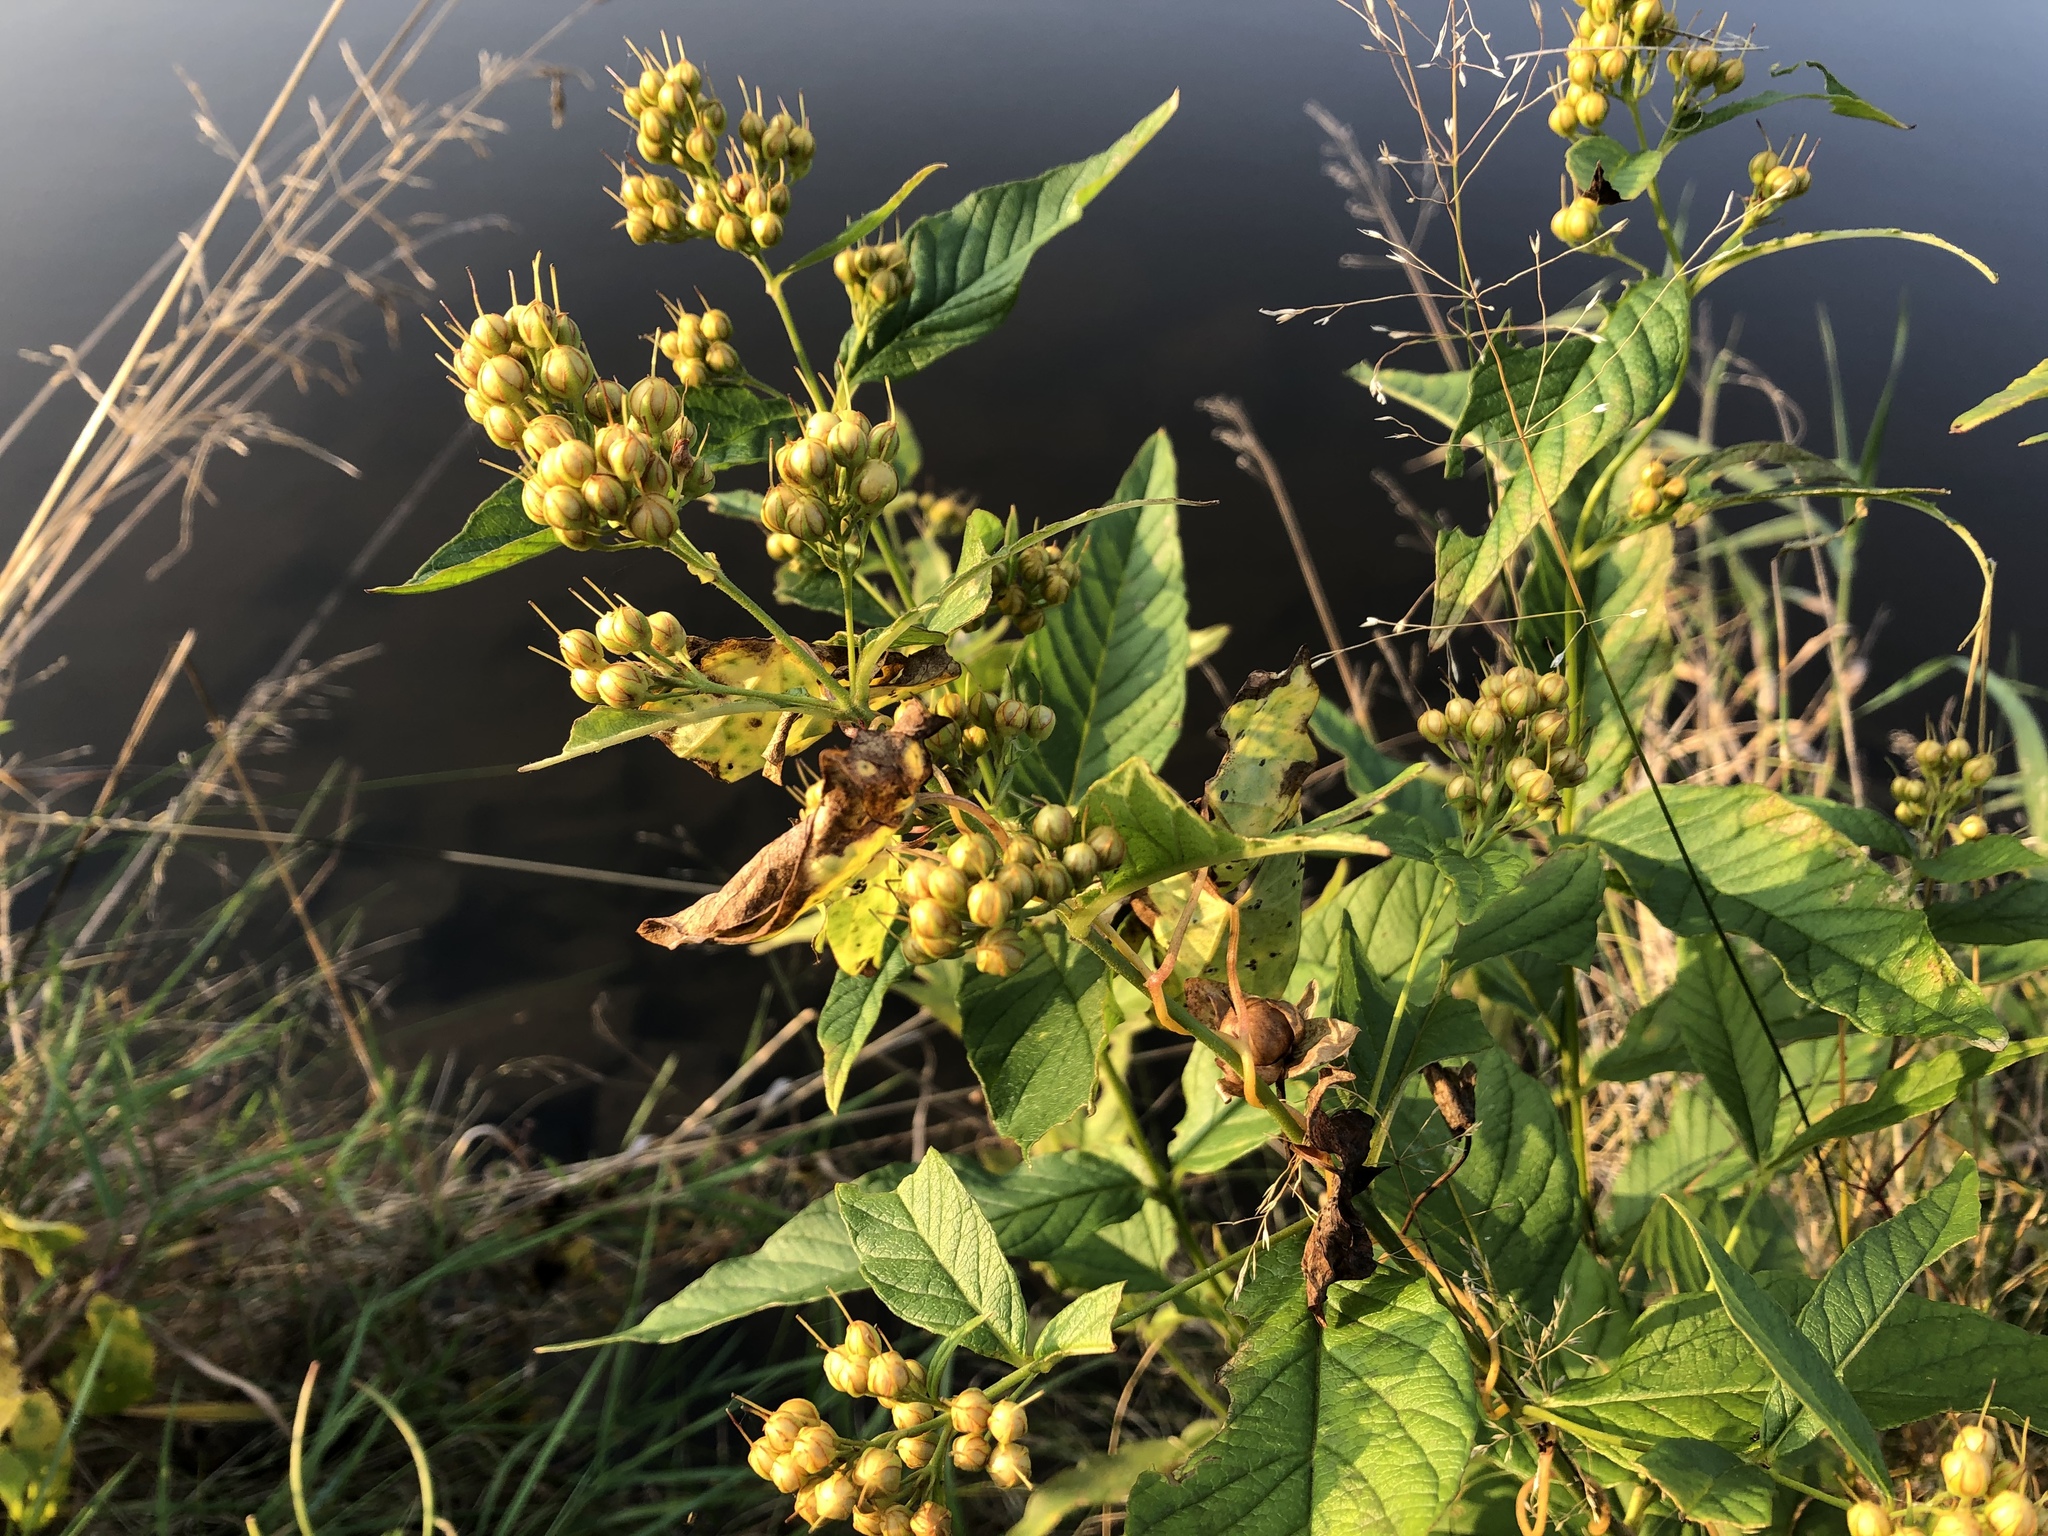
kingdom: Plantae
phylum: Tracheophyta
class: Magnoliopsida
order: Ericales
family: Primulaceae
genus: Lysimachia
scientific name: Lysimachia vulgaris
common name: Yellow loosestrife
